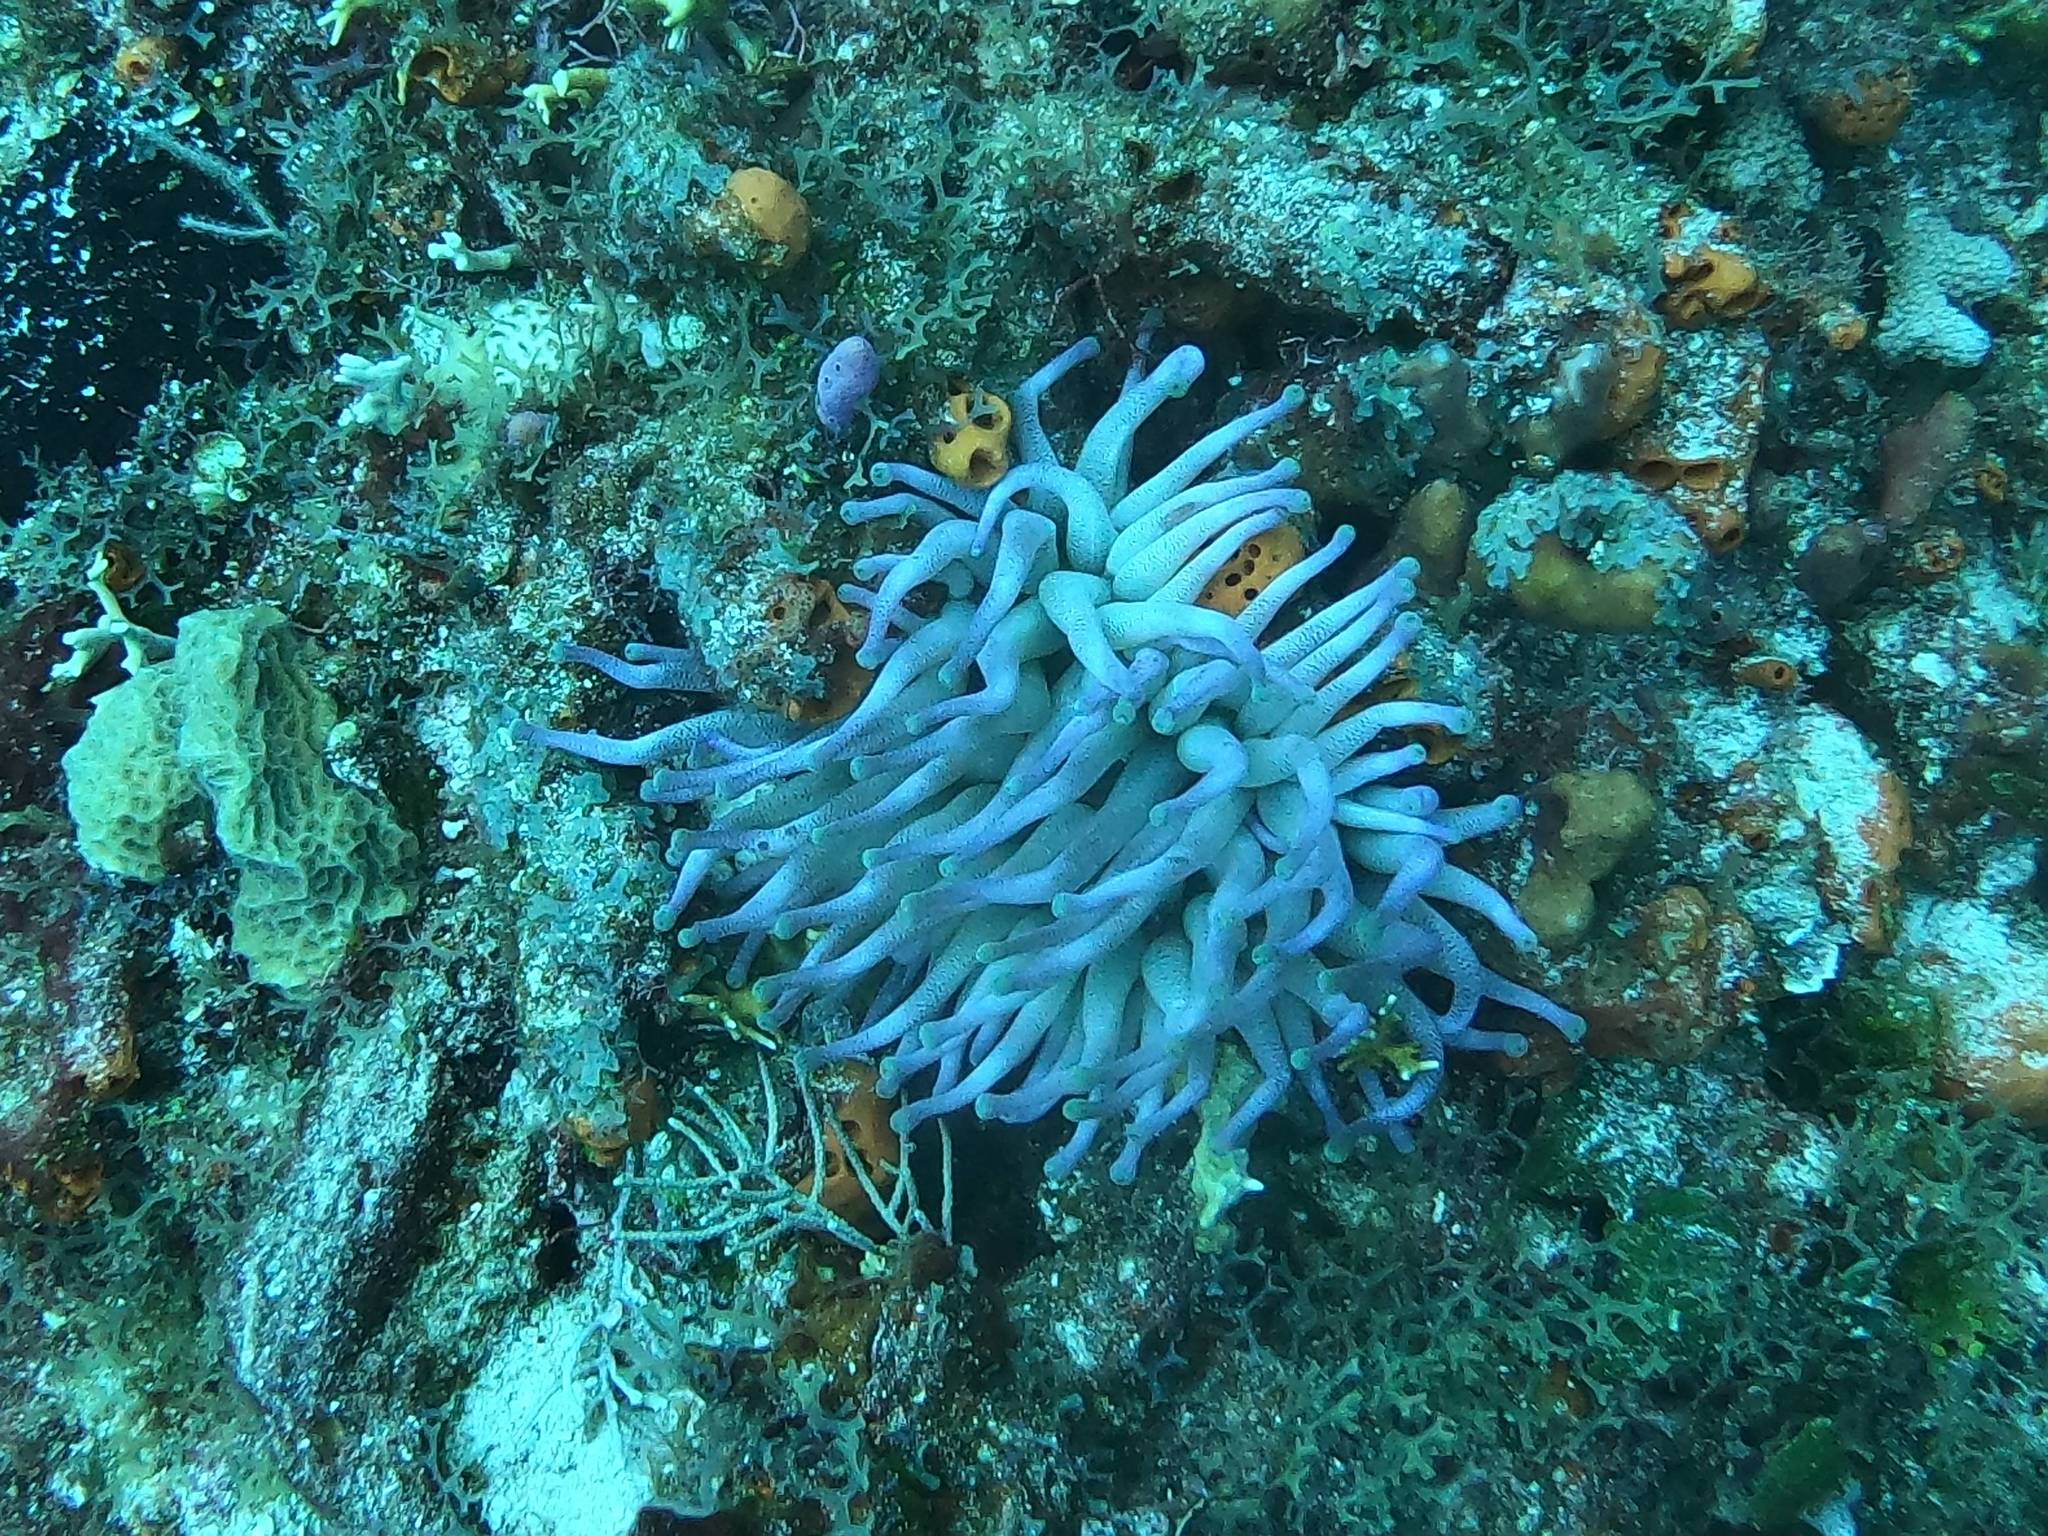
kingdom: Animalia
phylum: Cnidaria
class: Anthozoa
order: Actiniaria
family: Actiniidae
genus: Condylactis
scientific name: Condylactis gigantea
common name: Giant caribbean anemone
